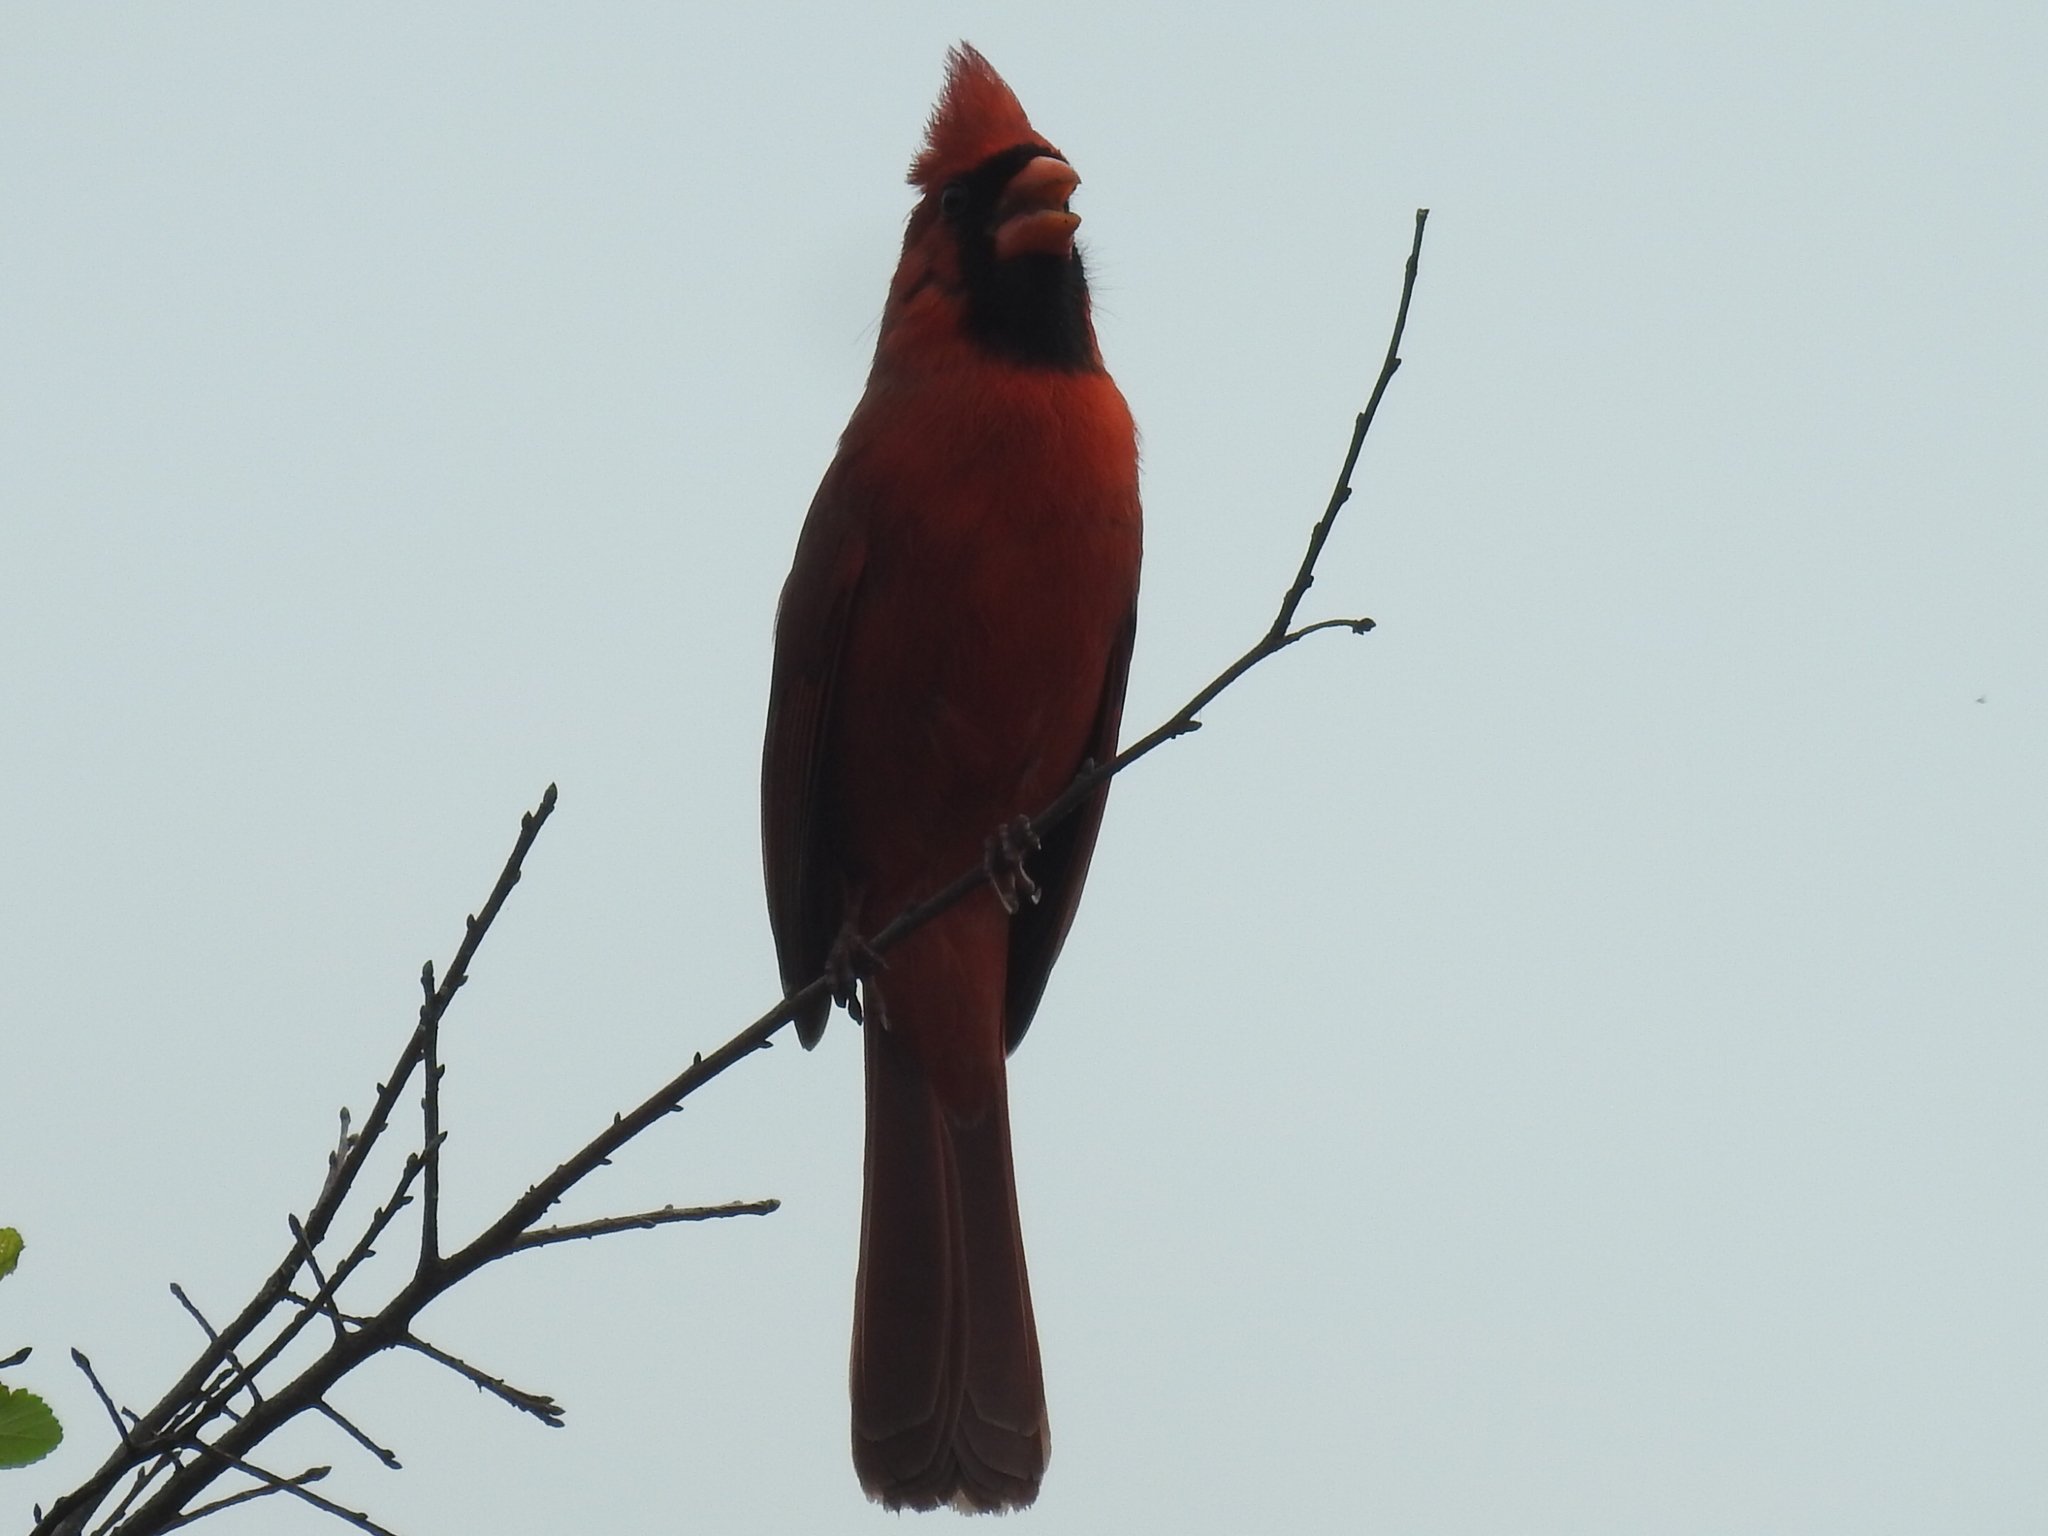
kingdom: Animalia
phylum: Chordata
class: Aves
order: Passeriformes
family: Cardinalidae
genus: Cardinalis
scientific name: Cardinalis cardinalis
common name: Northern cardinal
